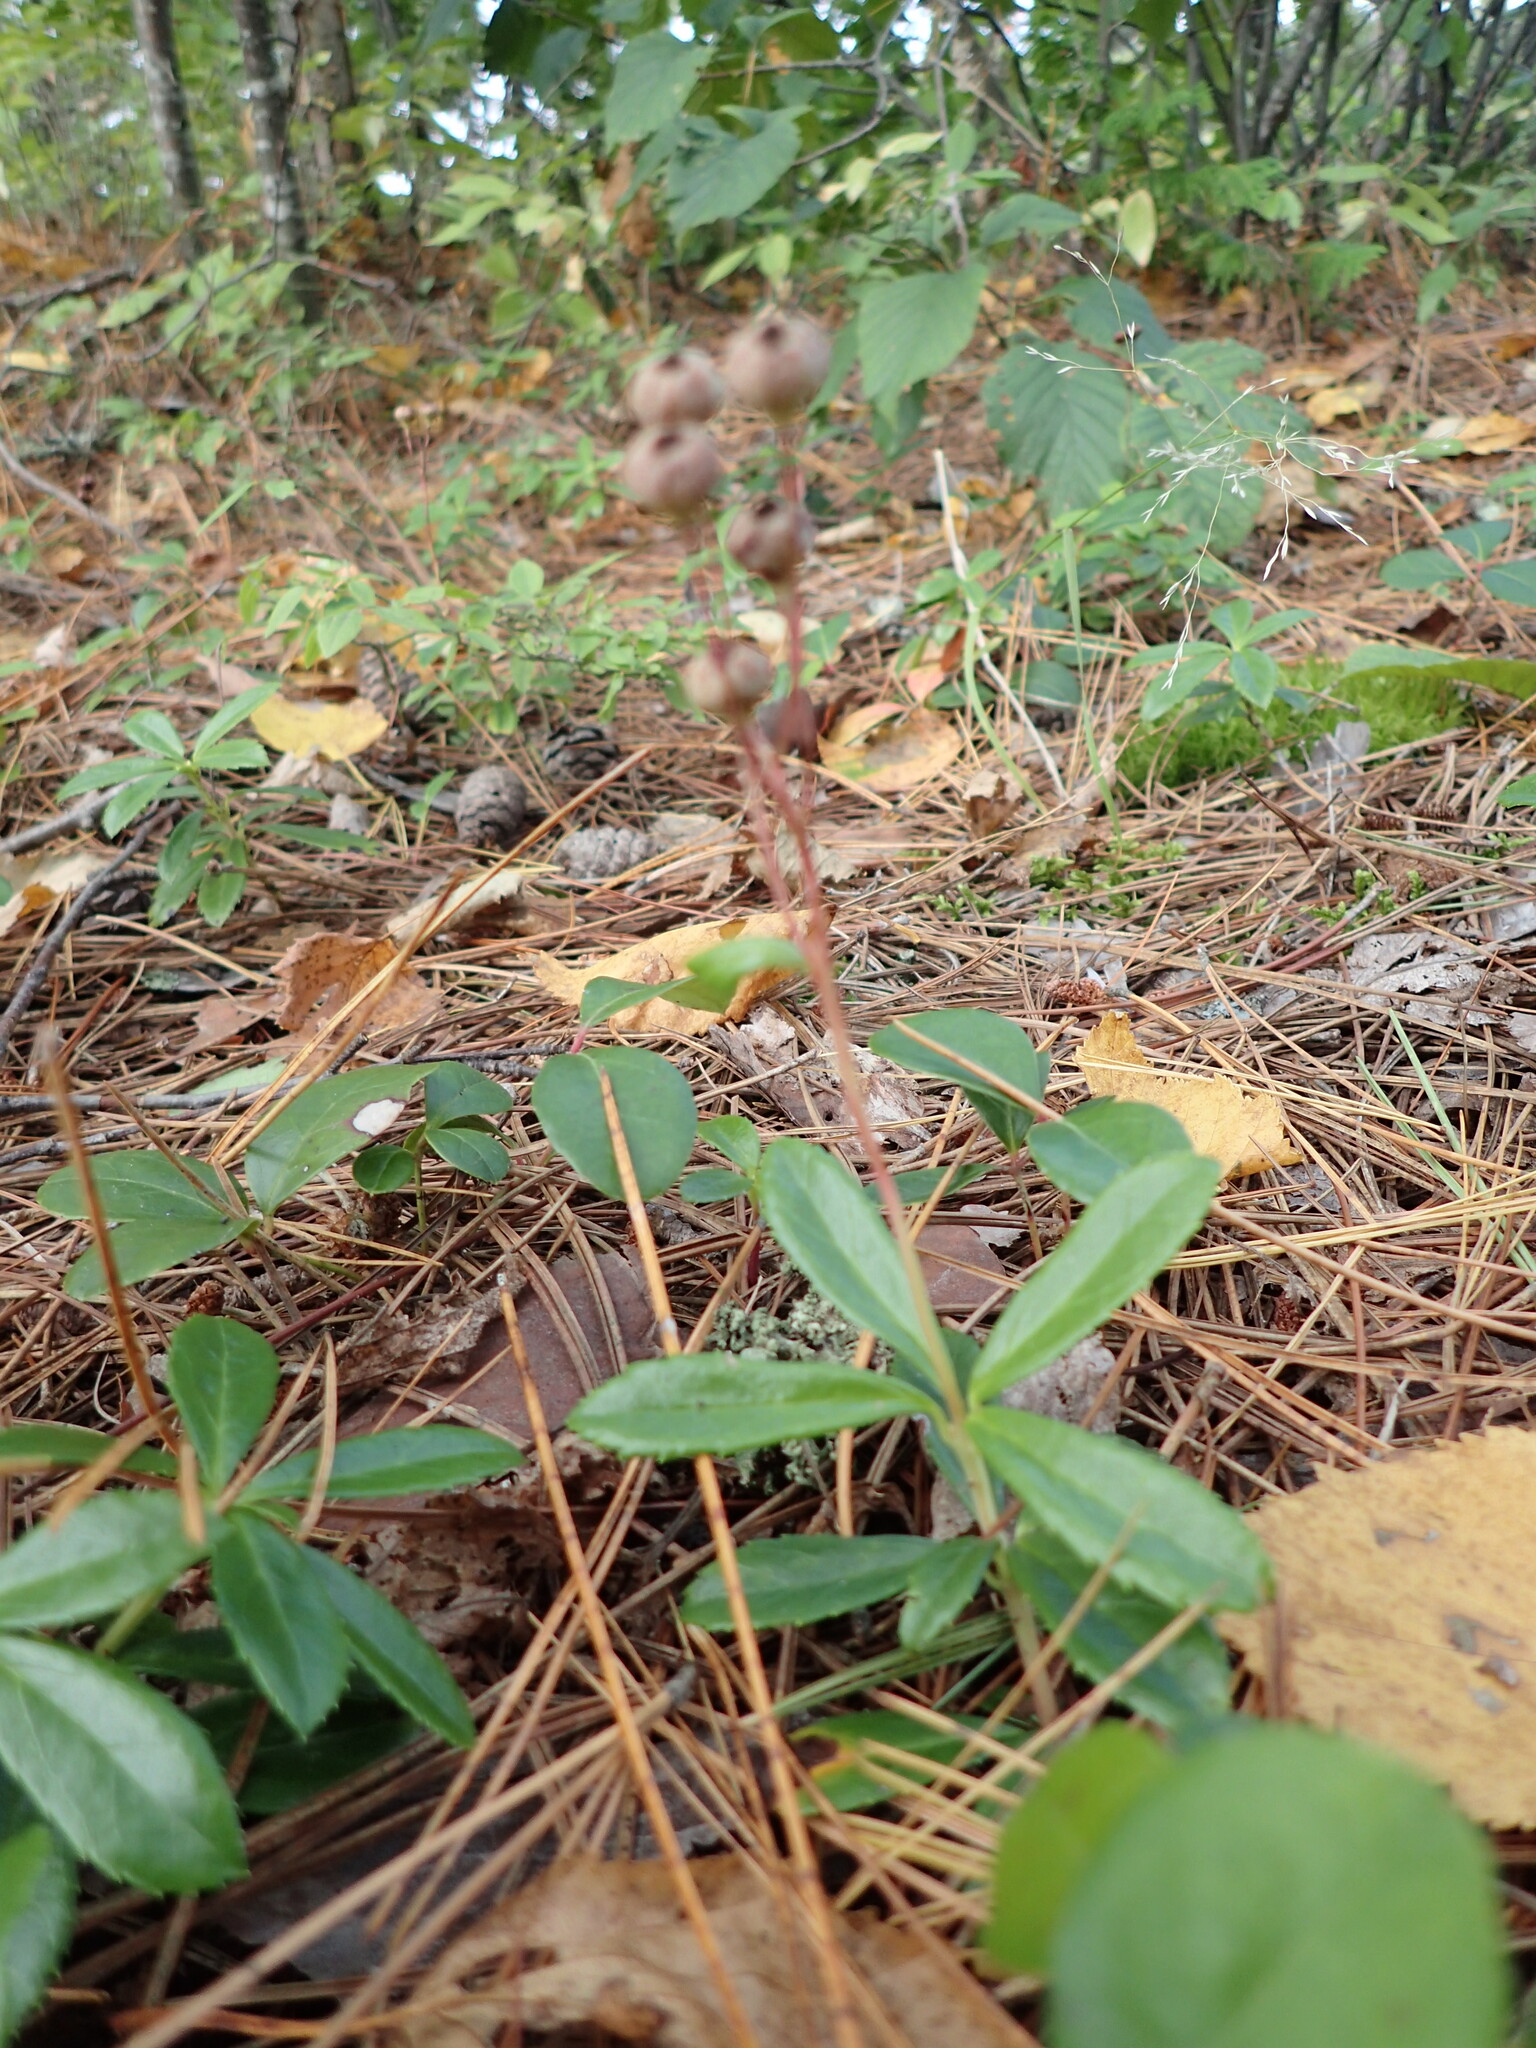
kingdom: Plantae
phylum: Tracheophyta
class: Magnoliopsida
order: Ericales
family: Ericaceae
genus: Chimaphila
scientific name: Chimaphila umbellata
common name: Pipsissewa
